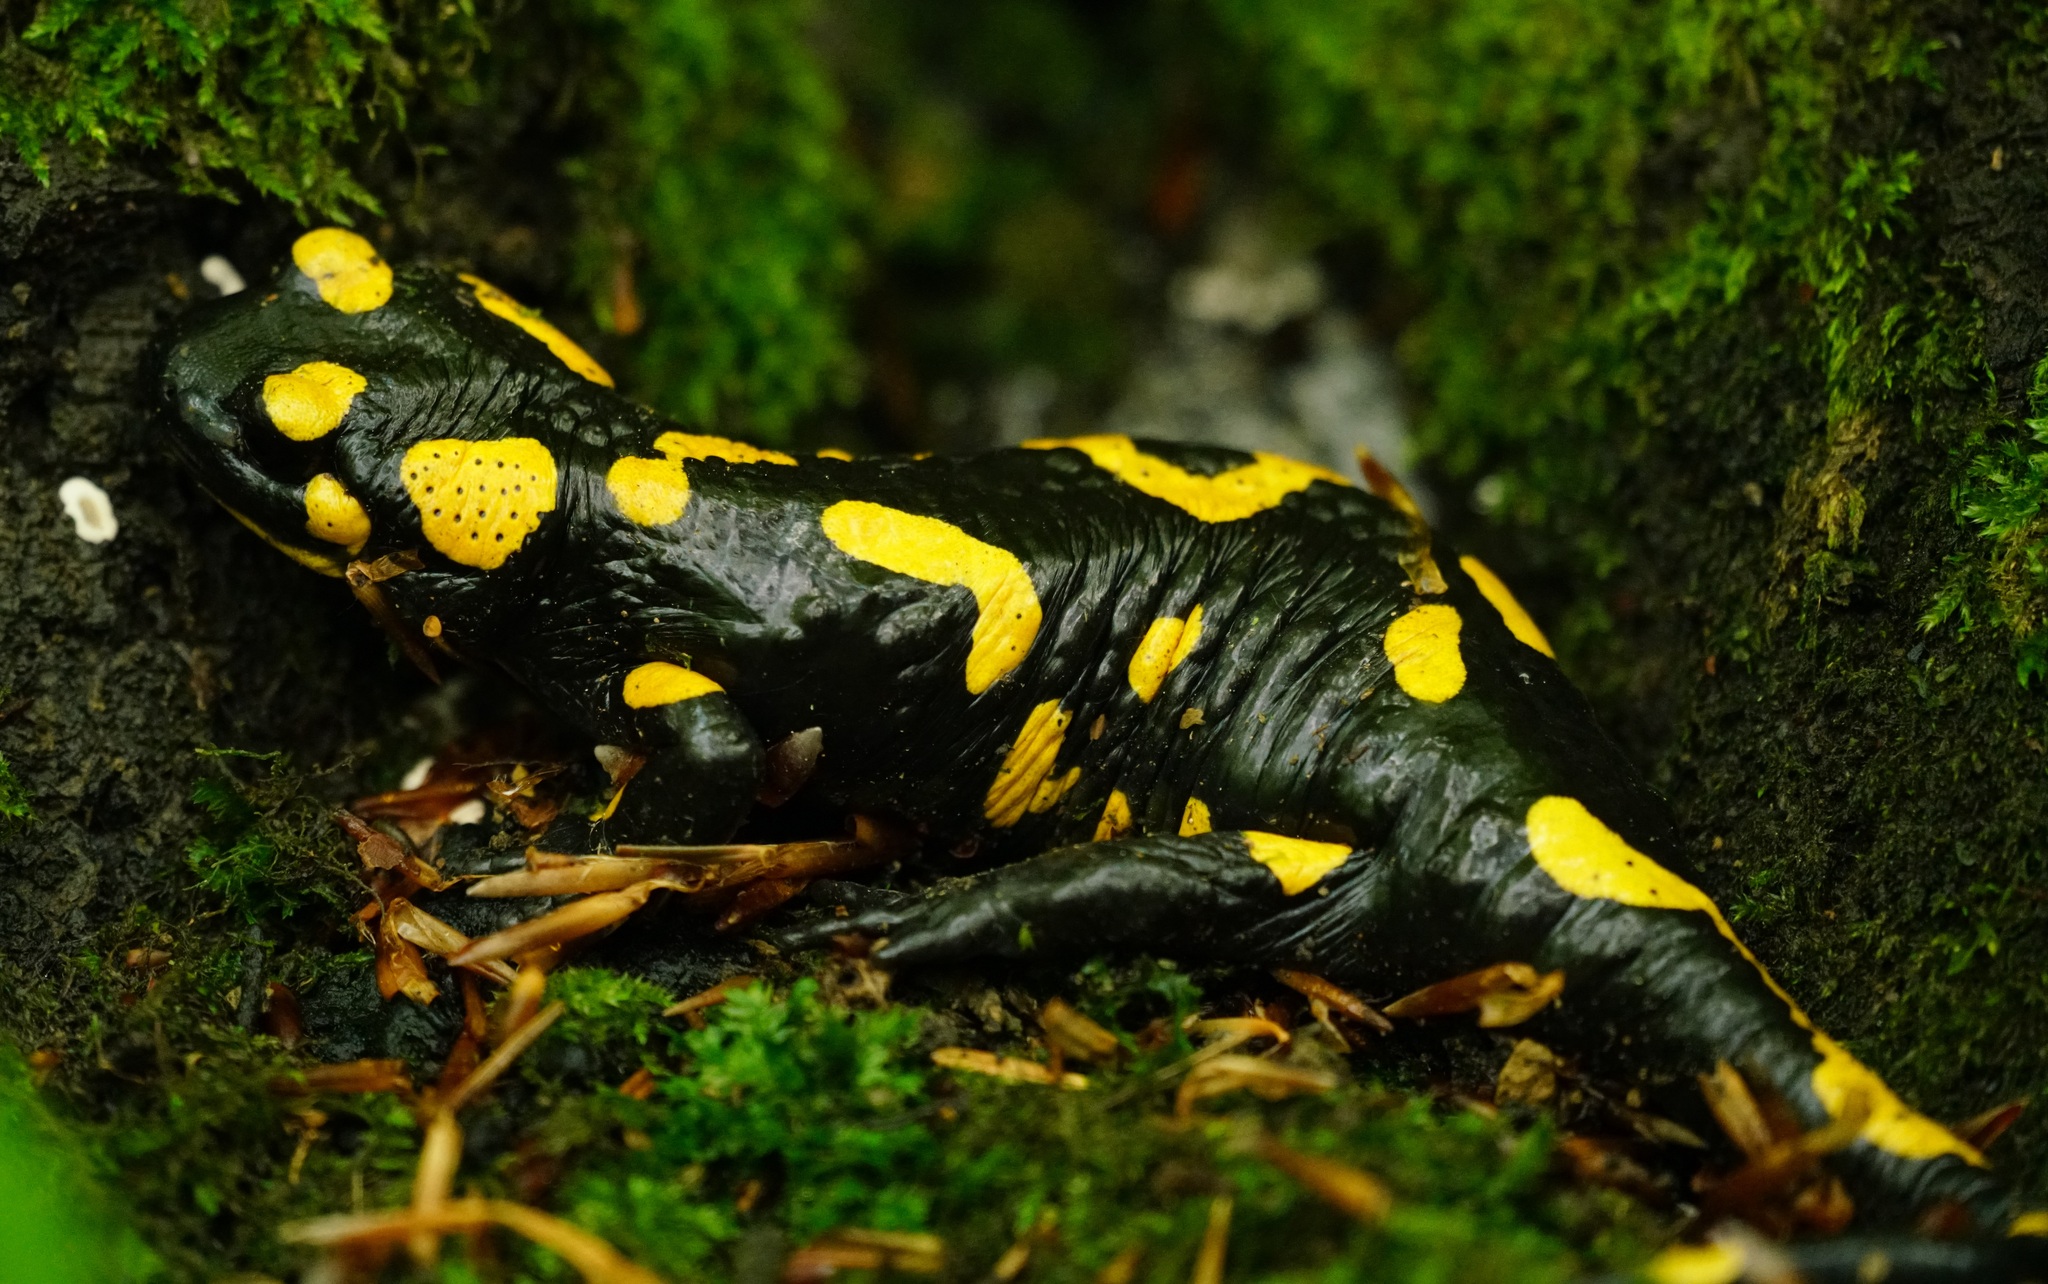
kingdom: Animalia
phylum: Chordata
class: Amphibia
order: Caudata
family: Salamandridae
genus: Salamandra
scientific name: Salamandra salamandra
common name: Fire salamander
